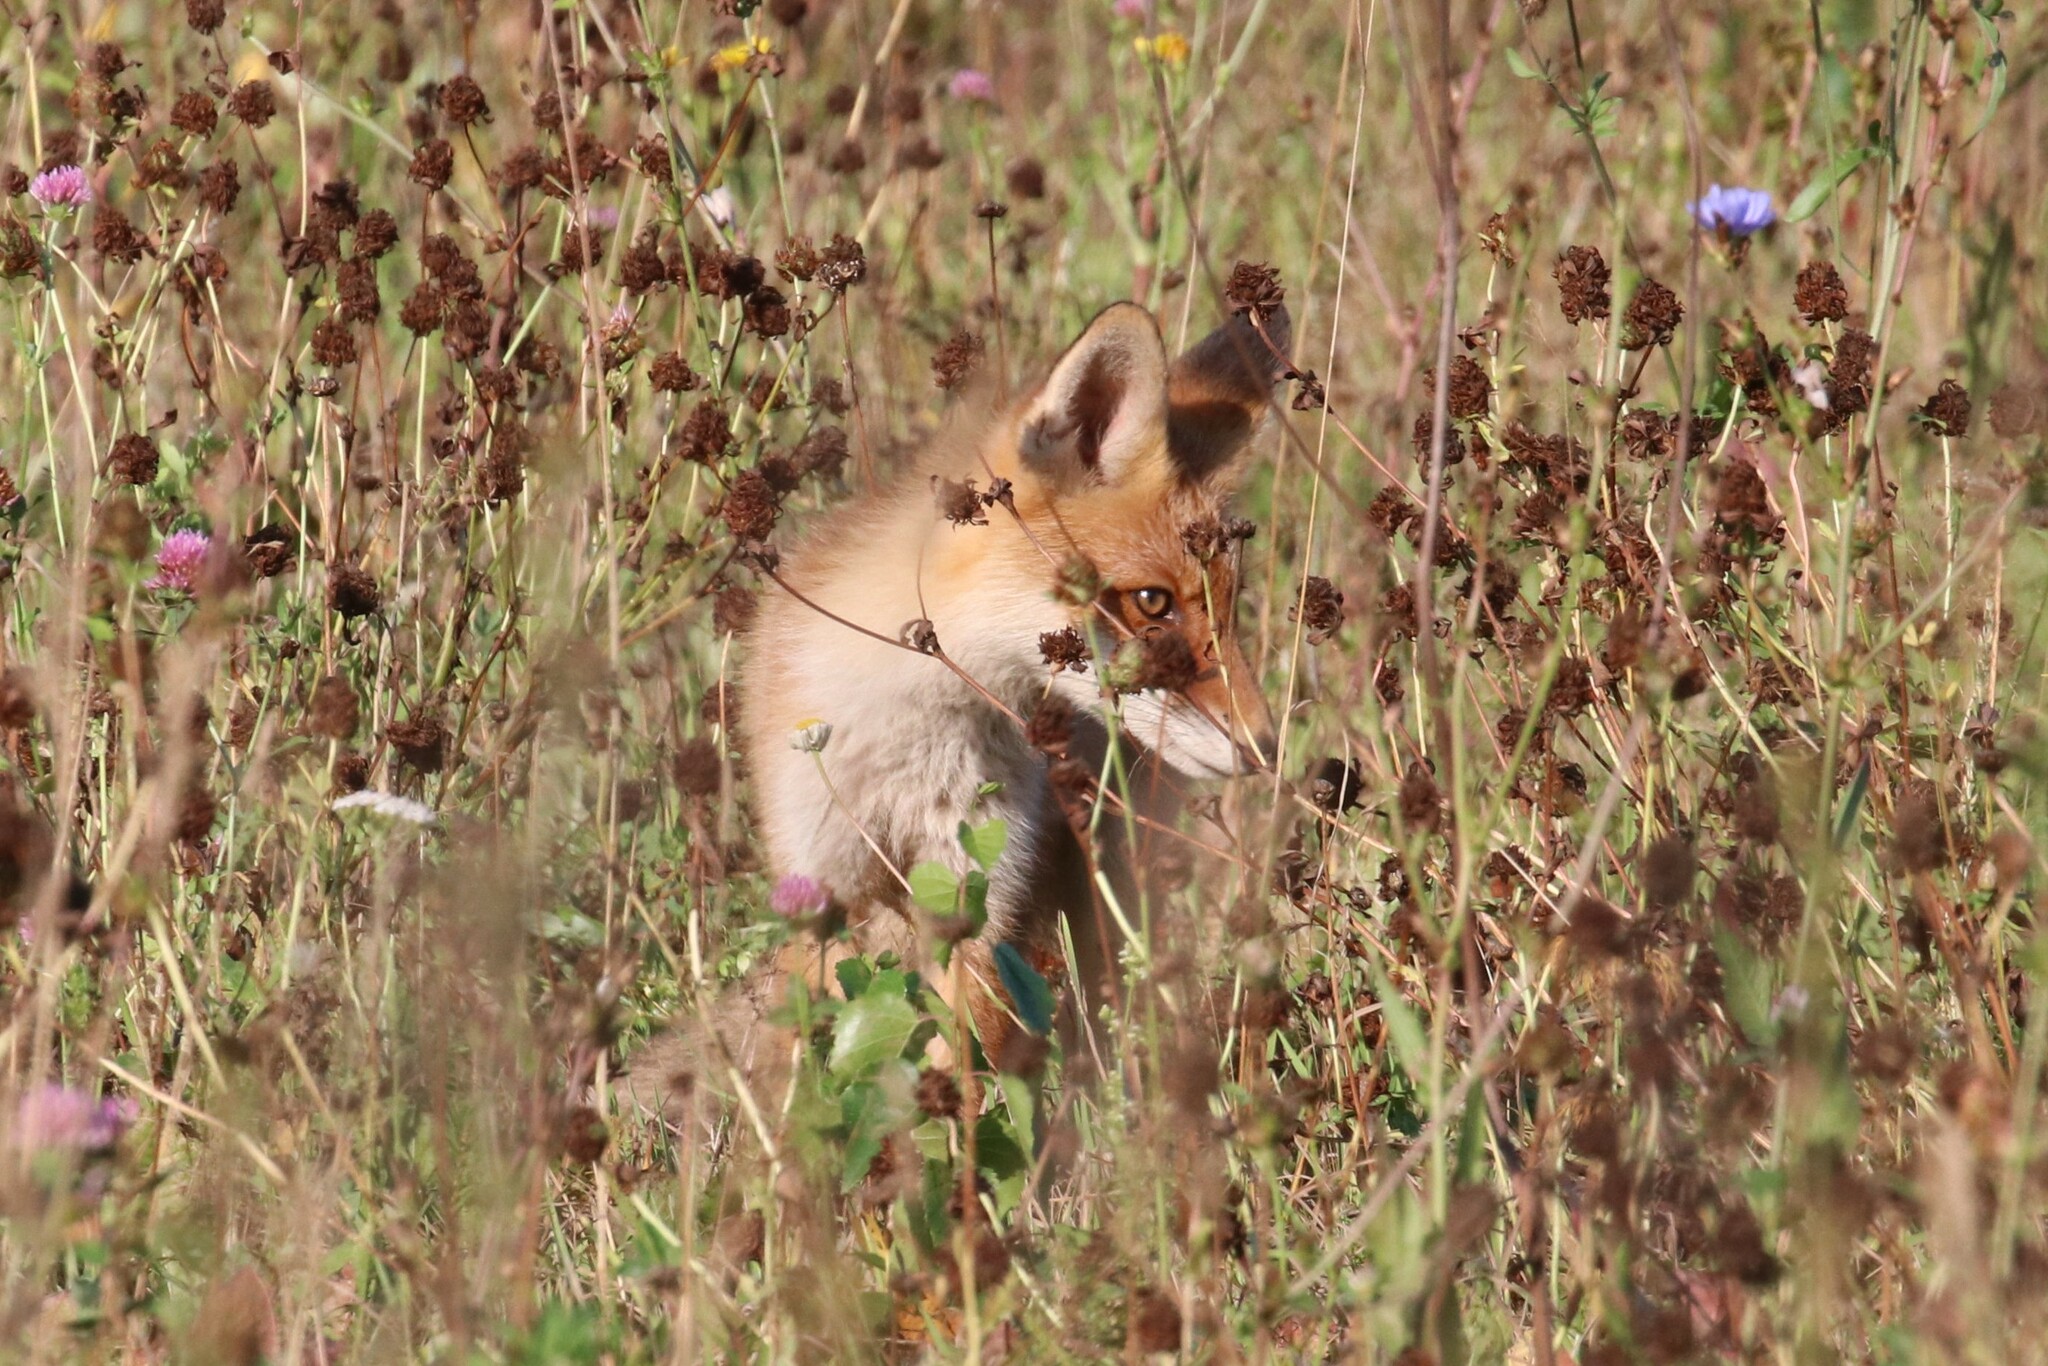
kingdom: Animalia
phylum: Chordata
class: Mammalia
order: Carnivora
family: Canidae
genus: Vulpes
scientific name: Vulpes vulpes
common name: Red fox
